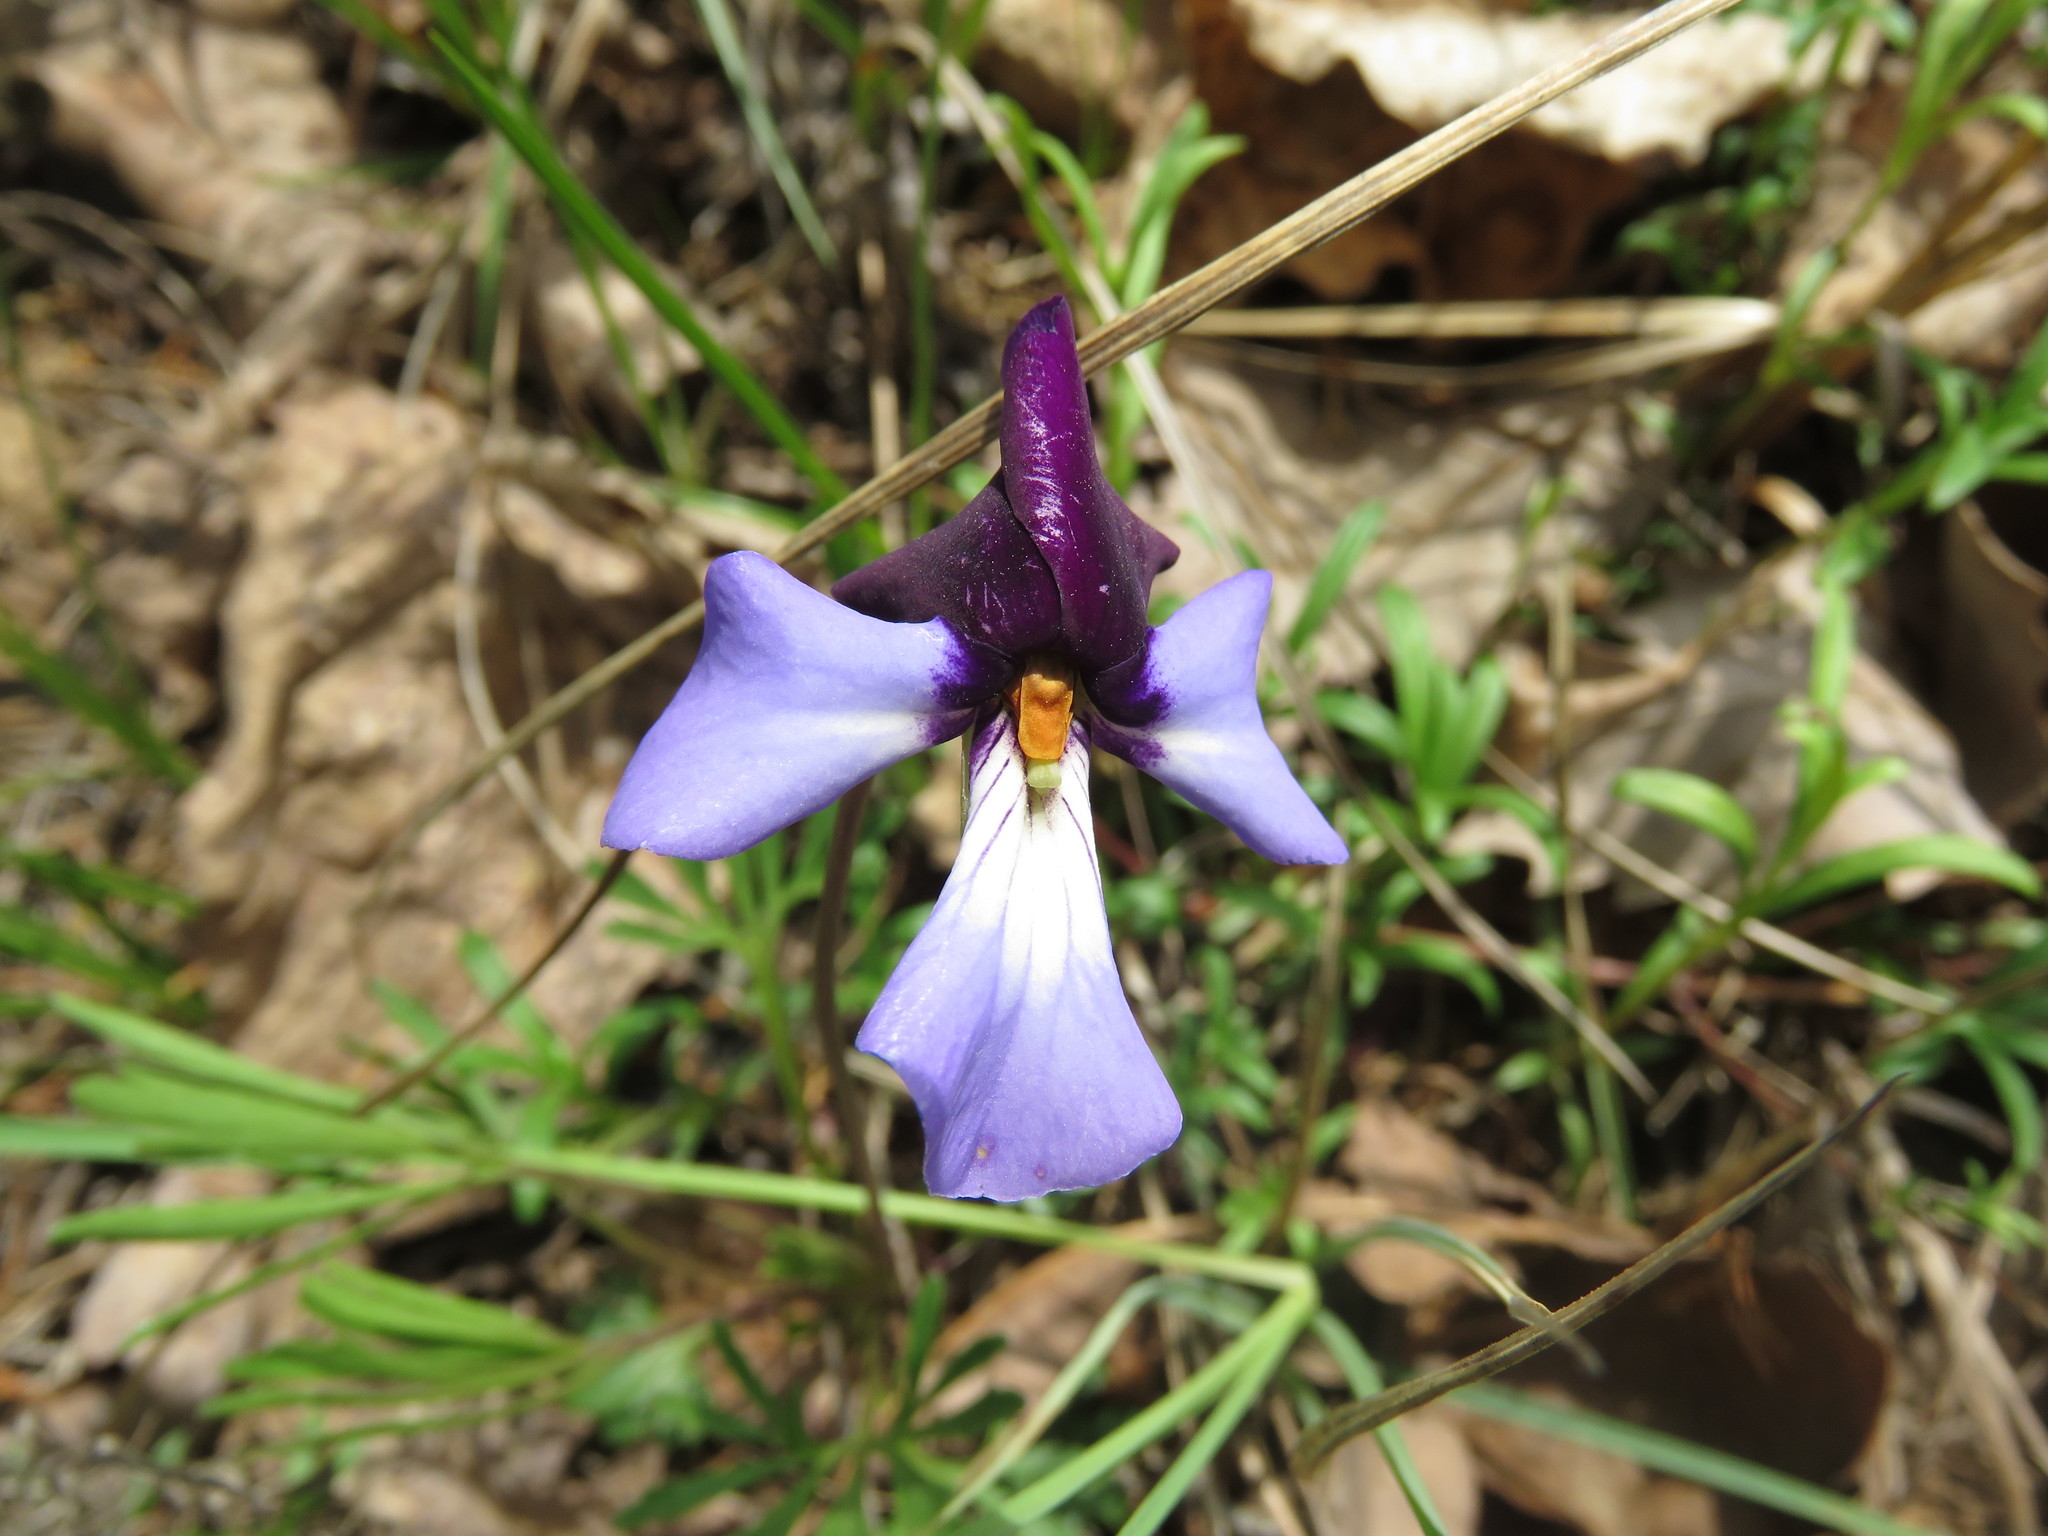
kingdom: Plantae
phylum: Tracheophyta
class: Magnoliopsida
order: Malpighiales
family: Violaceae
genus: Viola
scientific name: Viola pedata
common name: Pansy violet
